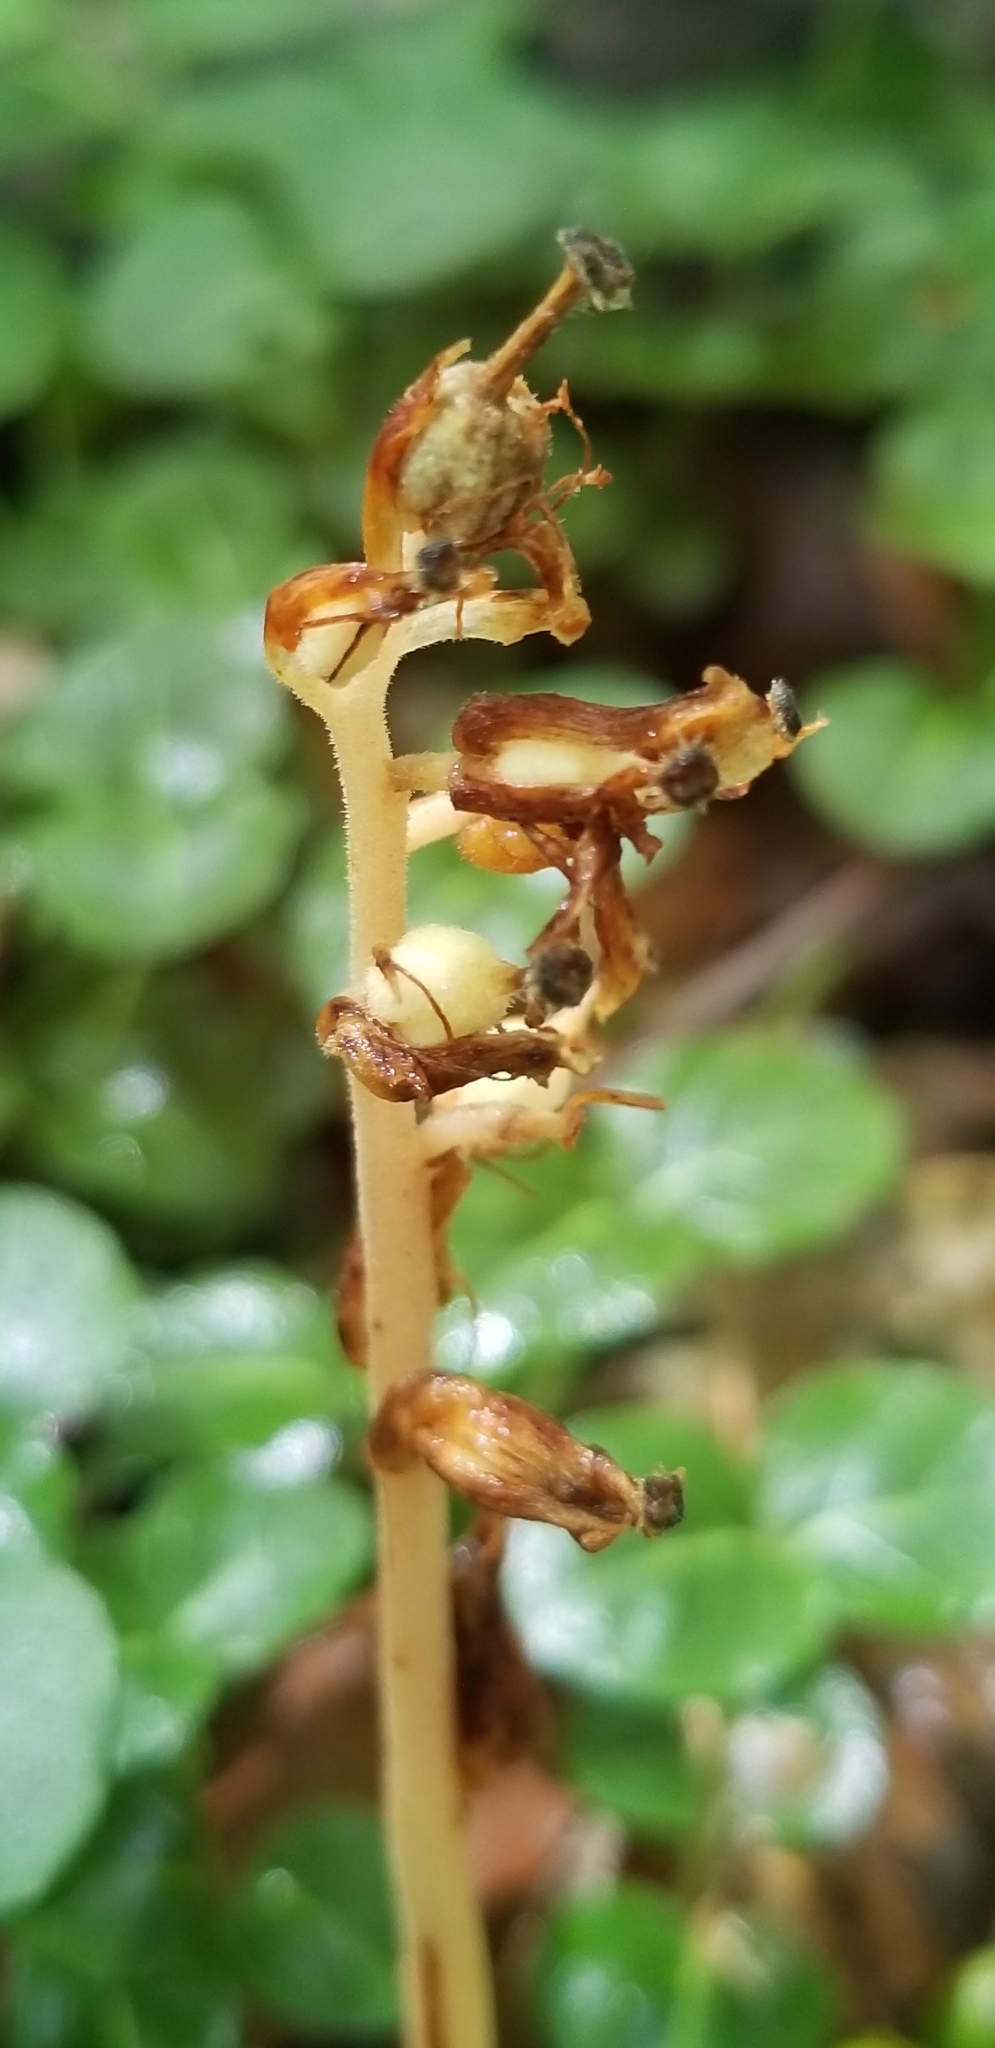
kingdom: Plantae
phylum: Tracheophyta
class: Magnoliopsida
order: Ericales
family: Ericaceae
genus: Hypopitys
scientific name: Hypopitys monotropa
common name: Yellow bird's-nest
